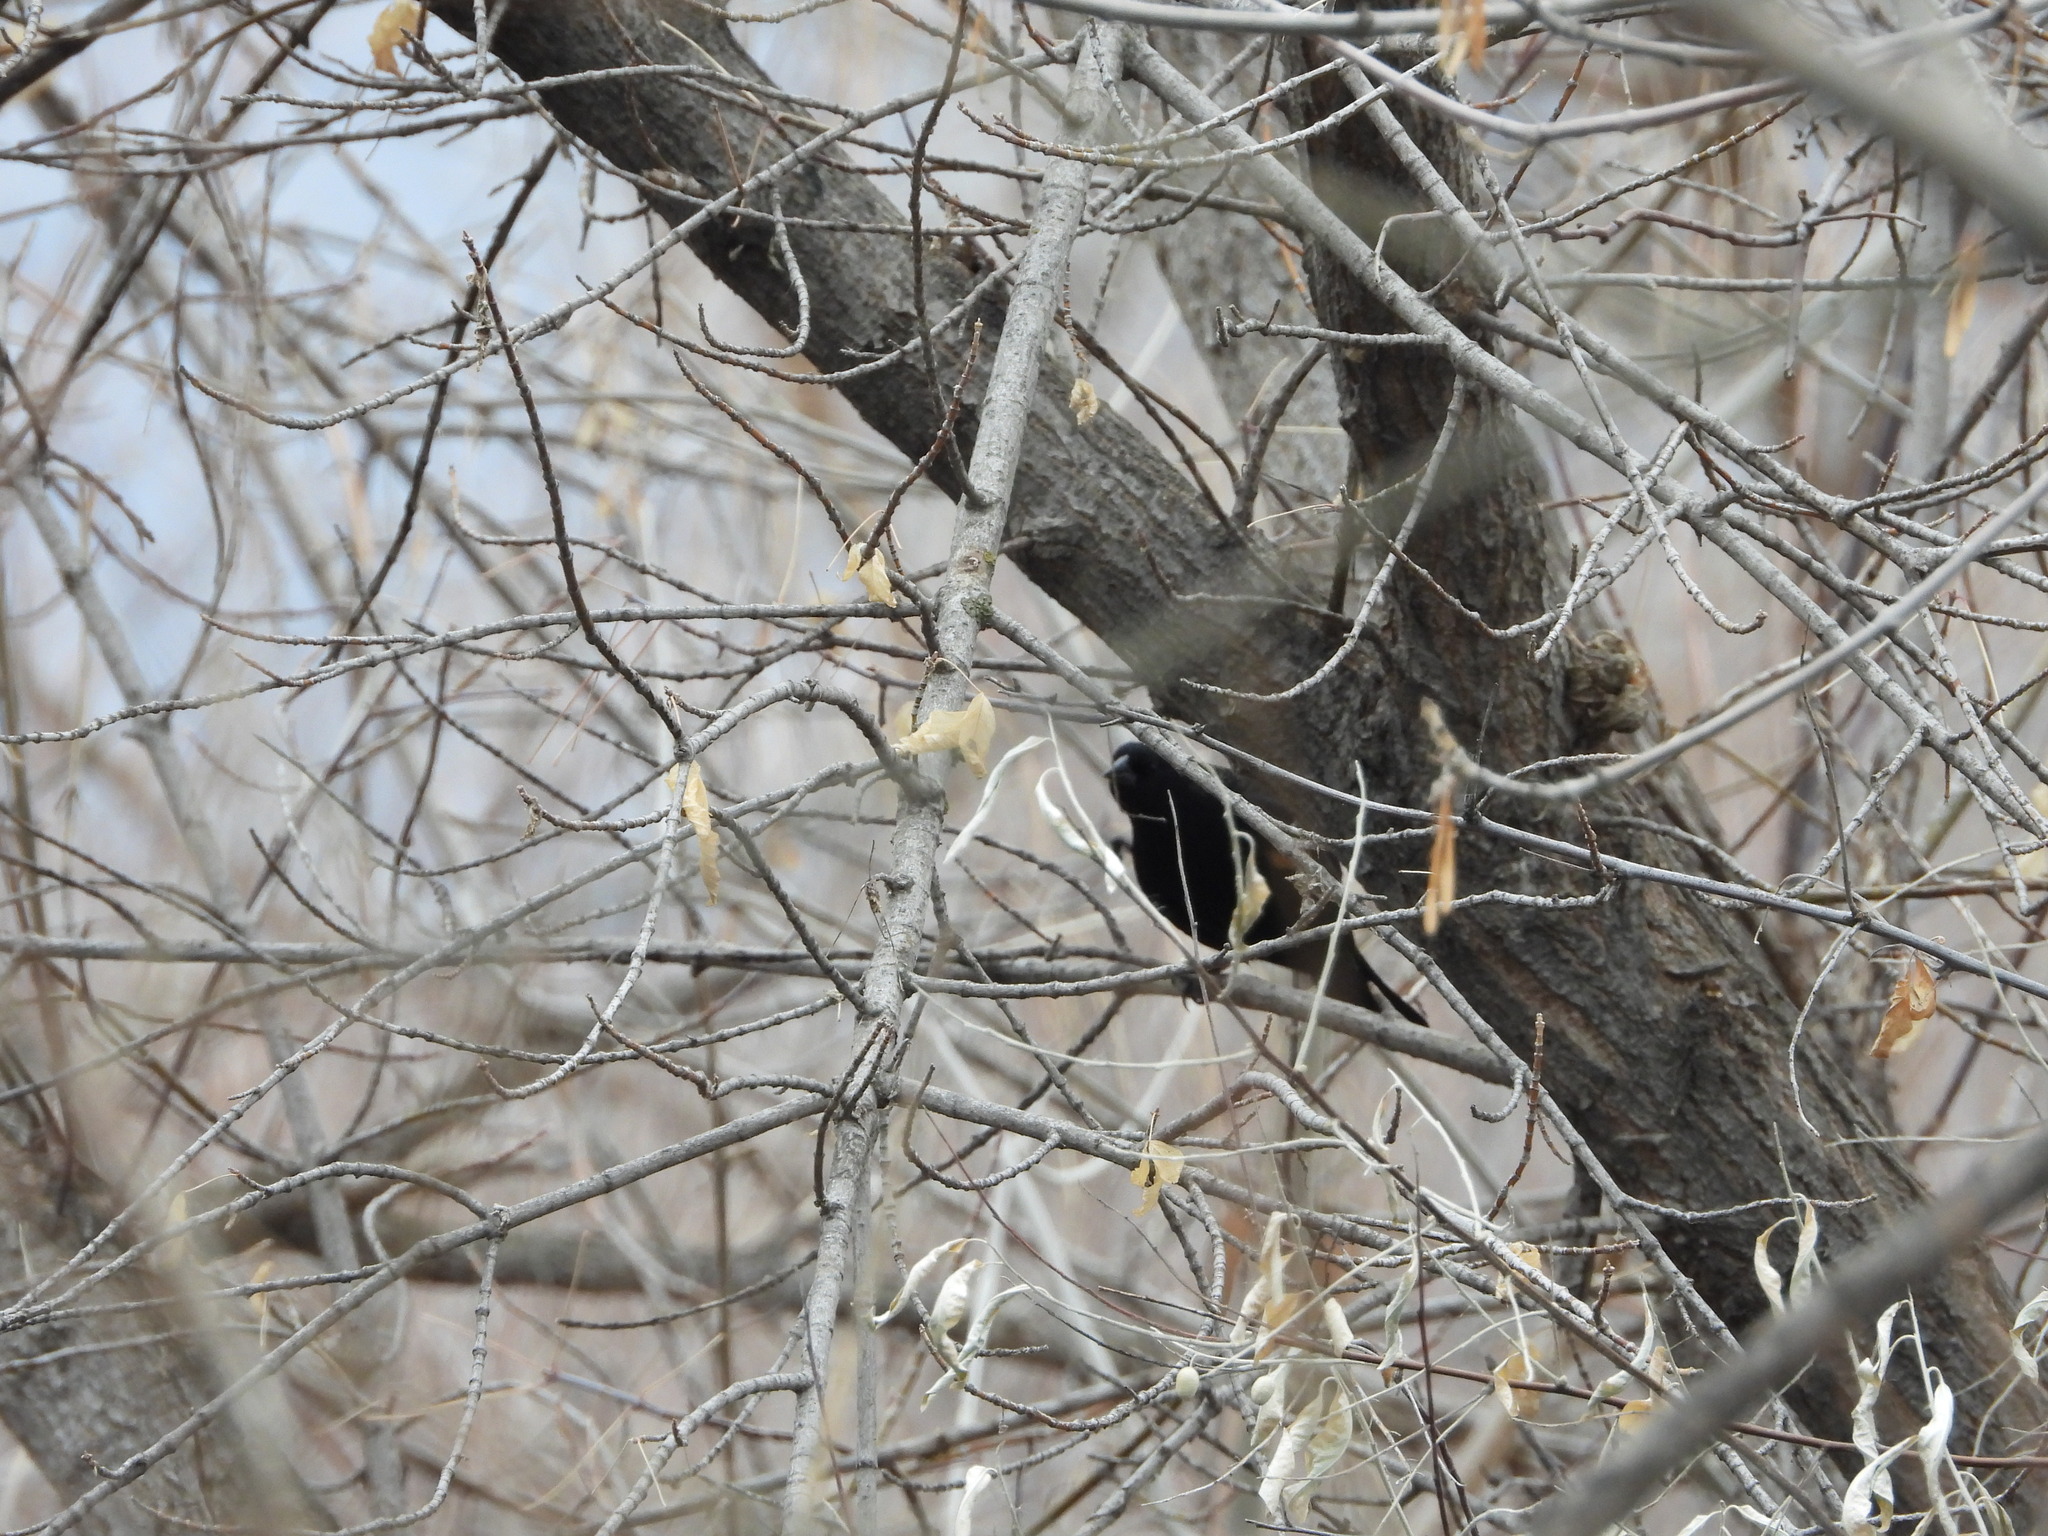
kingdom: Animalia
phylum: Chordata
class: Aves
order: Passeriformes
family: Icteridae
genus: Agelaius
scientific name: Agelaius phoeniceus
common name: Red-winged blackbird
